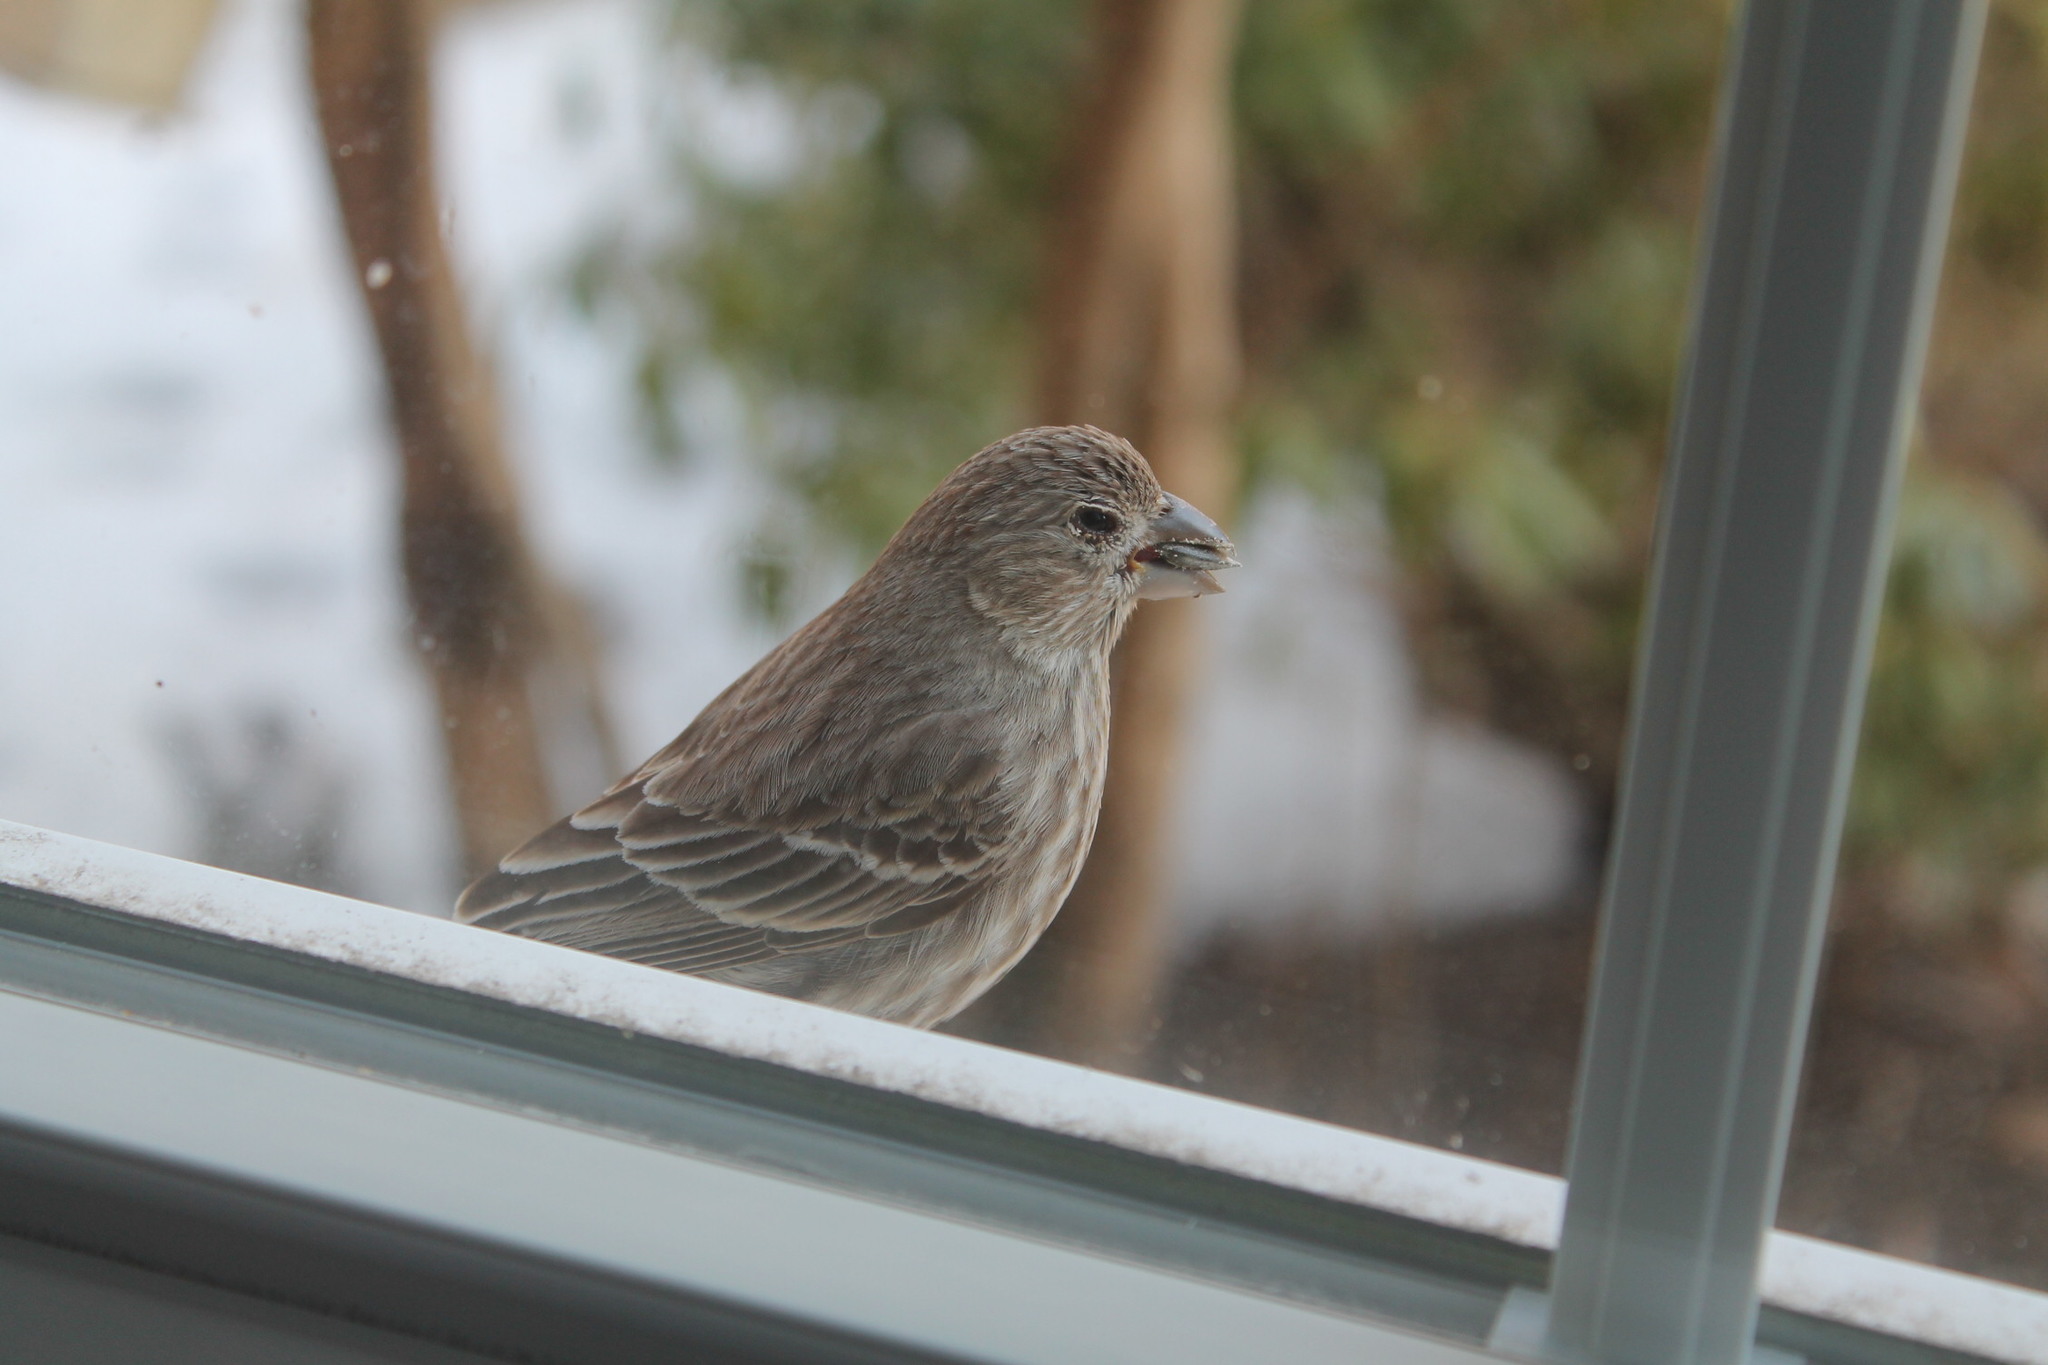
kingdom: Animalia
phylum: Chordata
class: Aves
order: Passeriformes
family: Fringillidae
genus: Haemorhous
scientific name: Haemorhous mexicanus
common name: House finch
